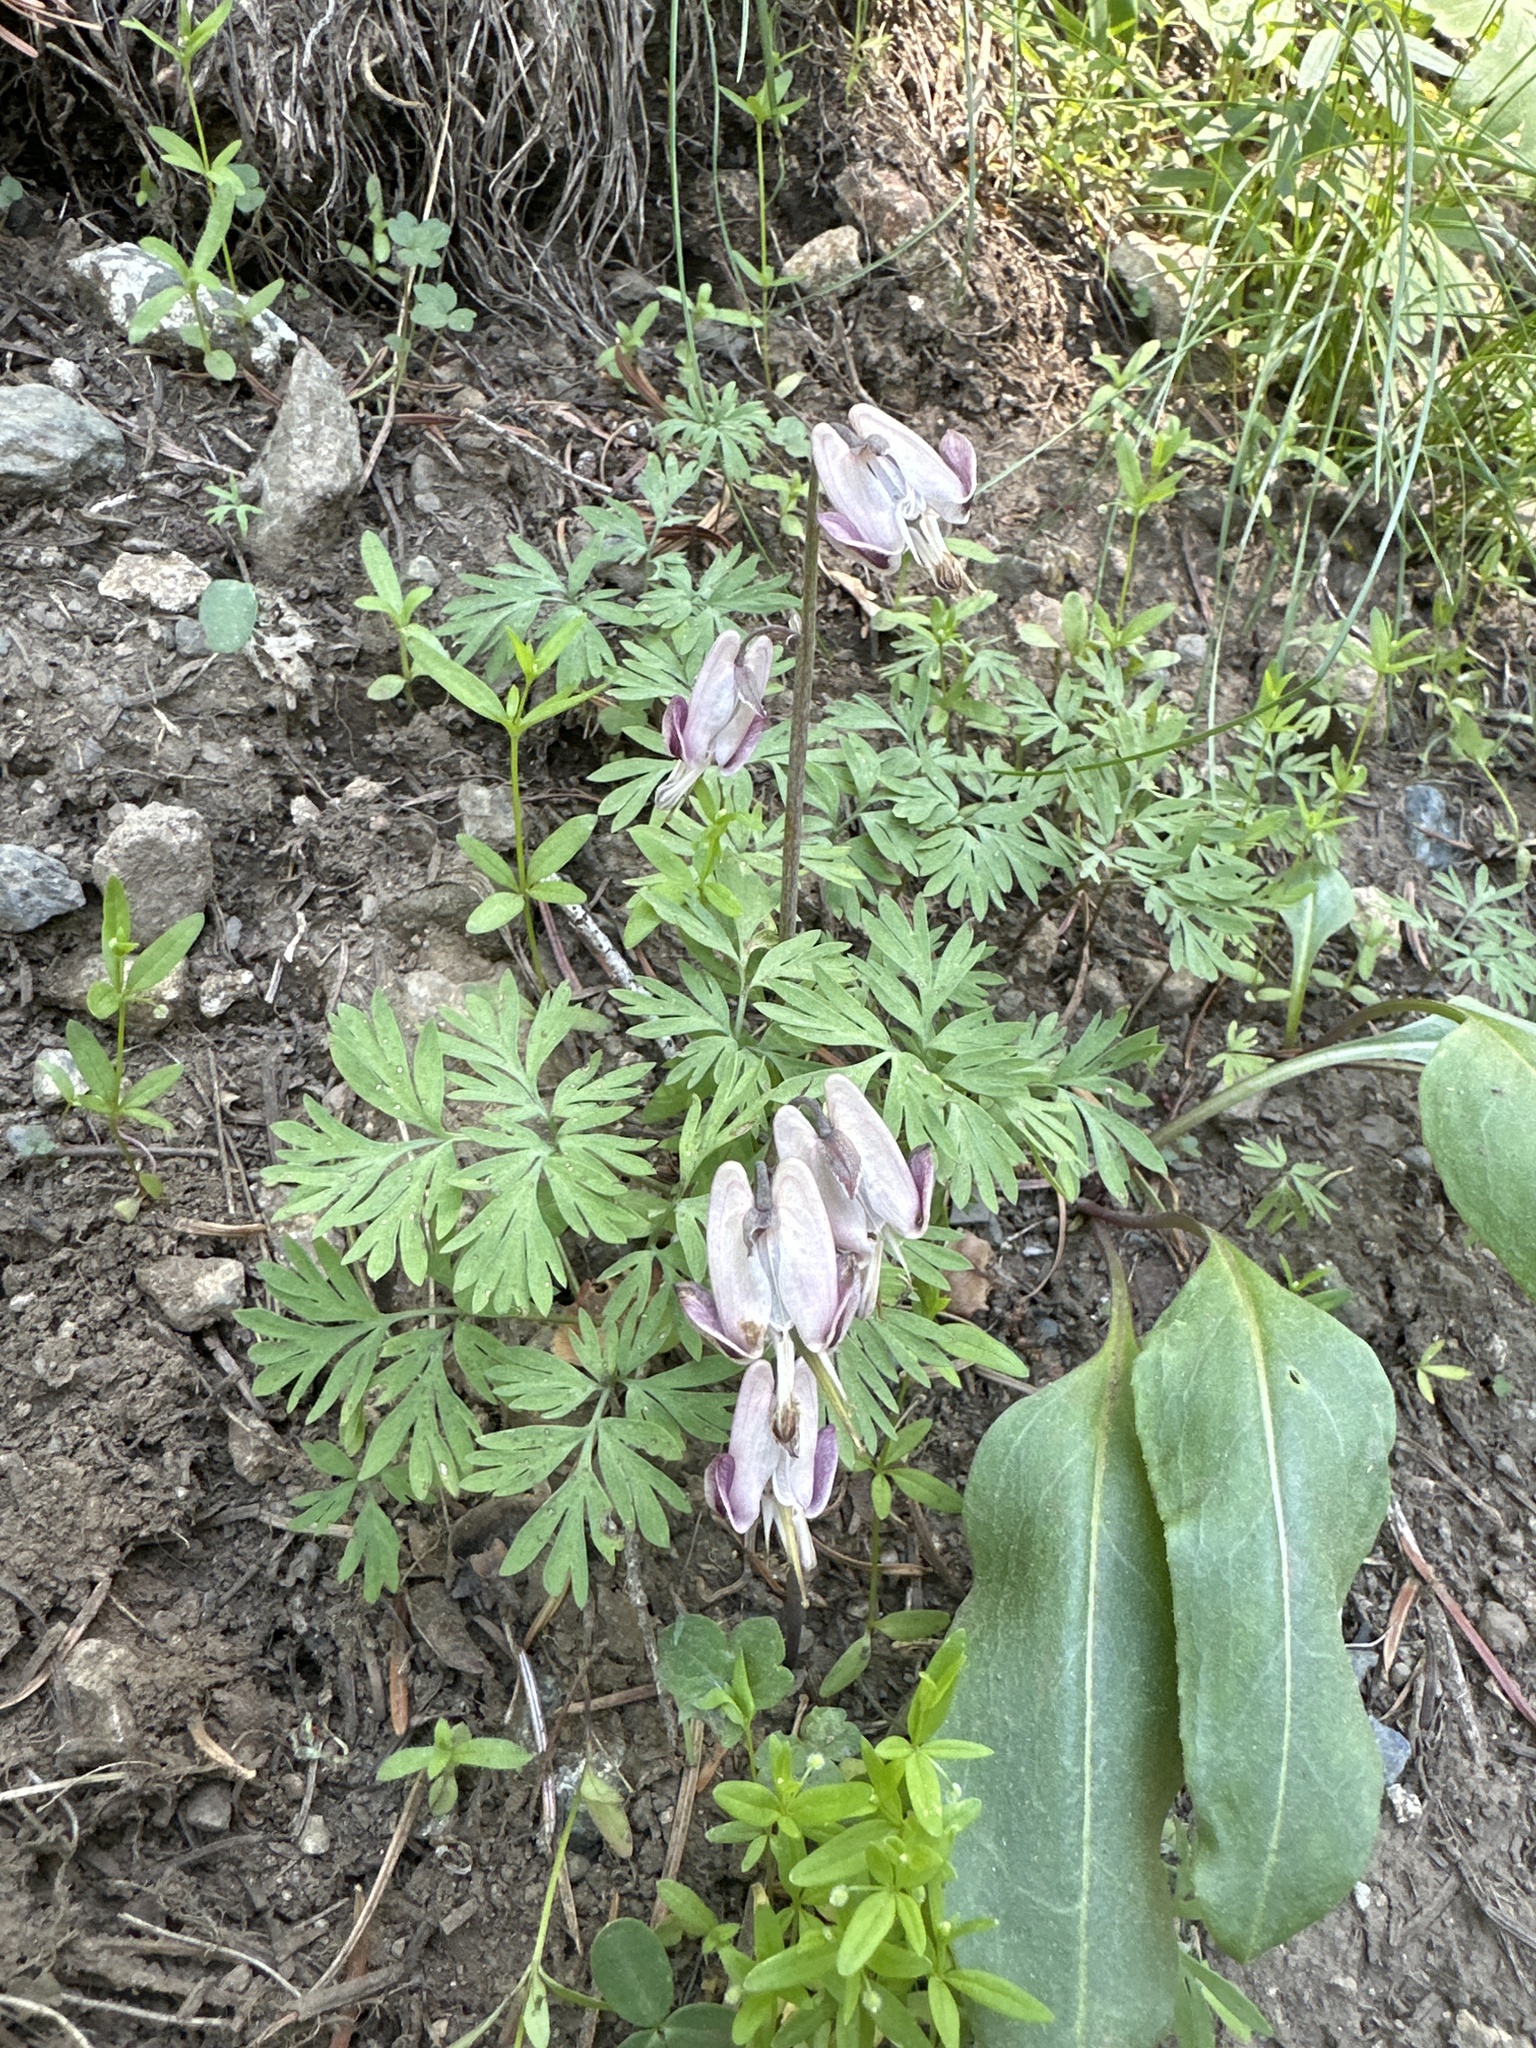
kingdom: Plantae
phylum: Tracheophyta
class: Magnoliopsida
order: Ranunculales
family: Papaveraceae
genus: Dicentra
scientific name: Dicentra pauciflora
